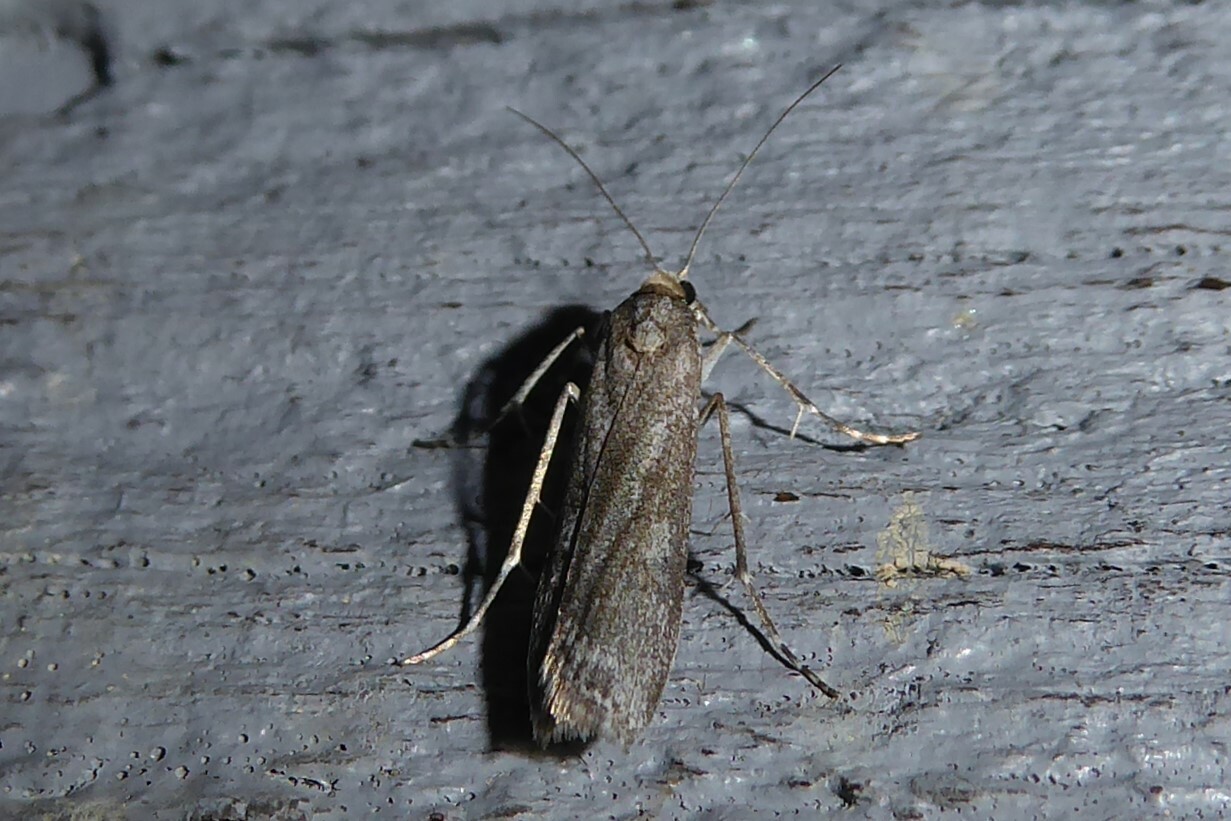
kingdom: Animalia
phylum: Arthropoda
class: Insecta
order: Lepidoptera
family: Crambidae
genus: Eudonia
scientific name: Eudonia leptalea
